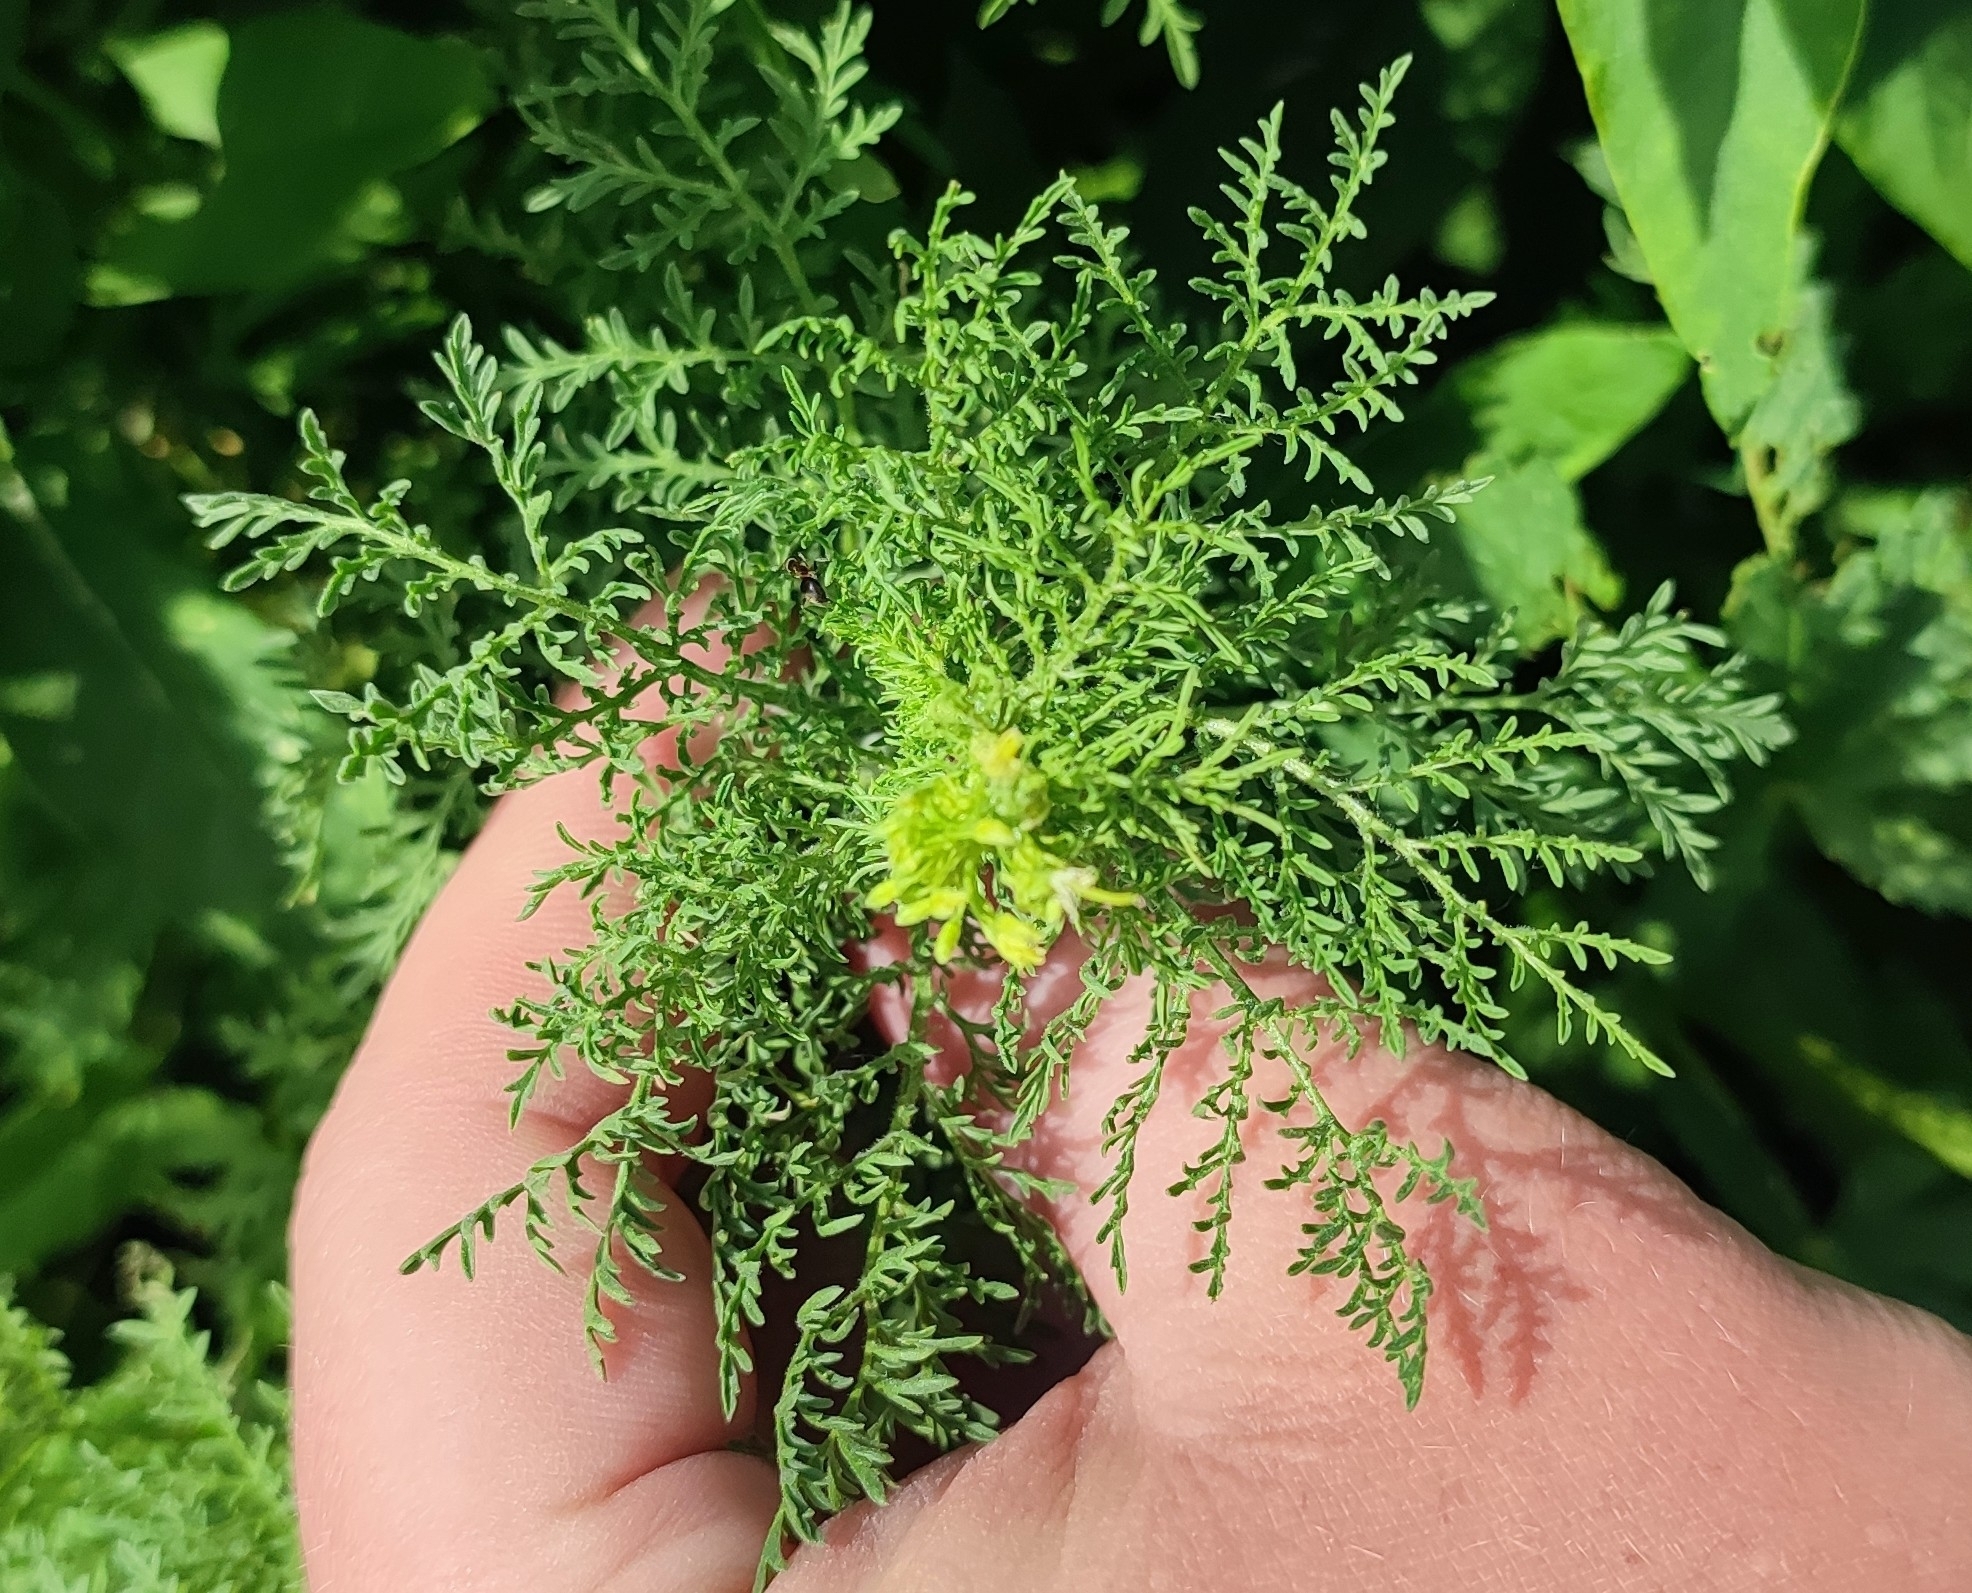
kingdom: Plantae
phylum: Tracheophyta
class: Magnoliopsida
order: Brassicales
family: Brassicaceae
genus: Descurainia
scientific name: Descurainia sophia
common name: Flixweed
